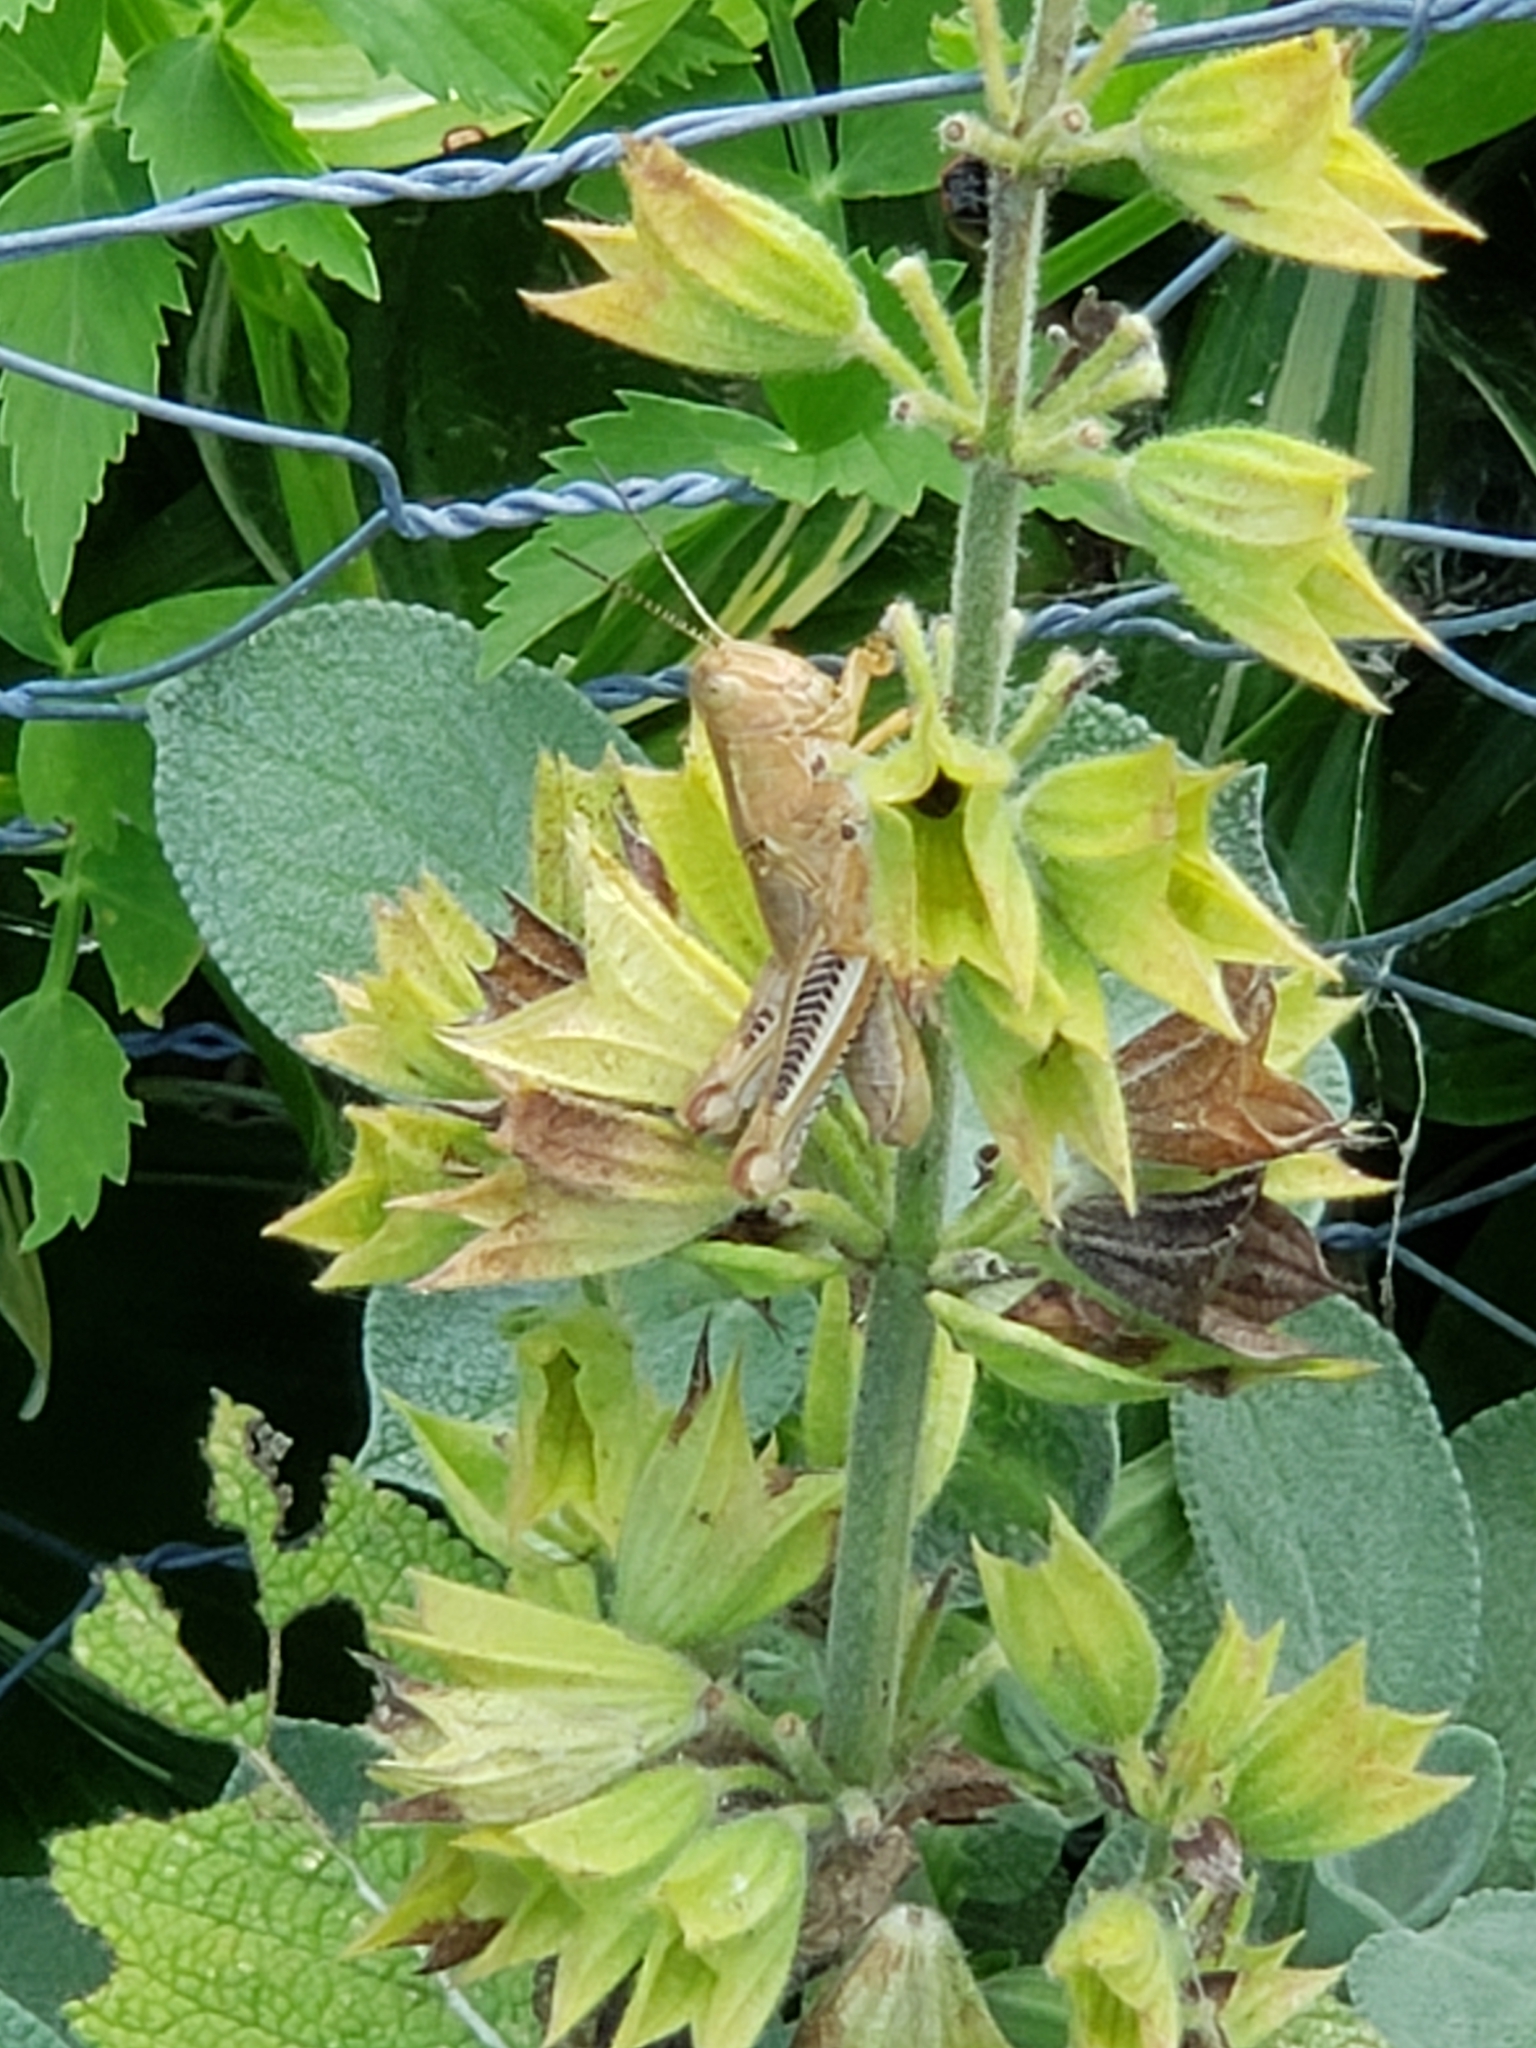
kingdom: Animalia
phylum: Arthropoda
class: Insecta
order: Orthoptera
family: Acrididae
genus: Melanoplus
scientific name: Melanoplus differentialis
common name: Differential grasshopper
